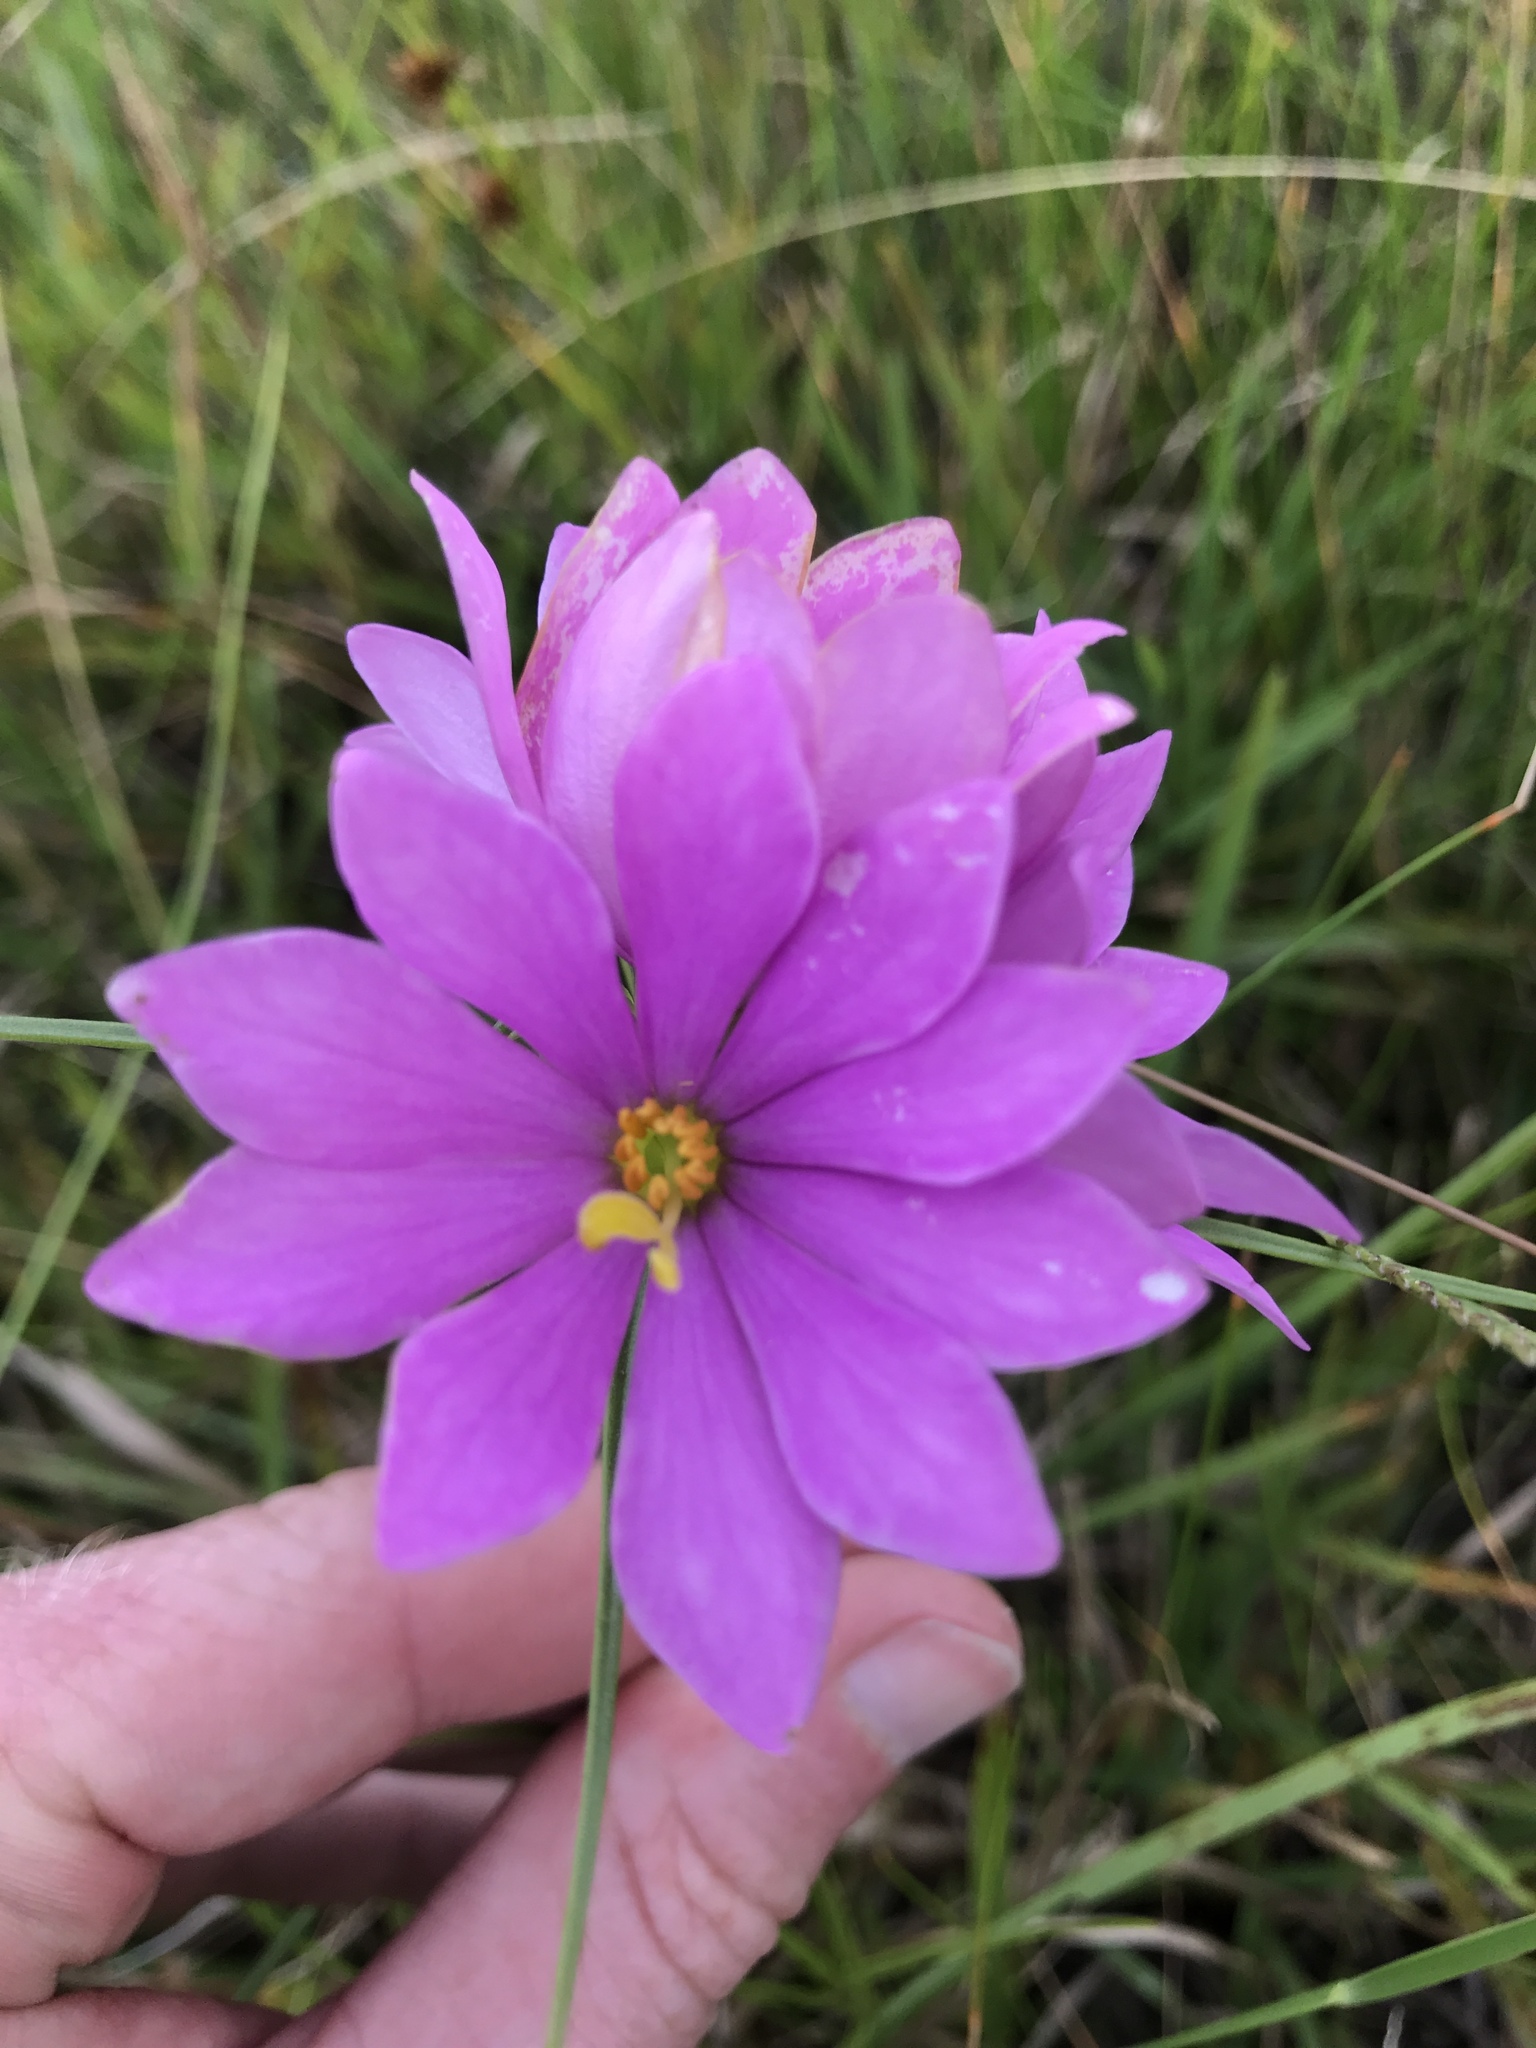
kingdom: Plantae
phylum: Tracheophyta
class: Magnoliopsida
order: Gentianales
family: Gentianaceae
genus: Sabatia
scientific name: Sabatia gentianoides
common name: Pinewoods rose-gentian
